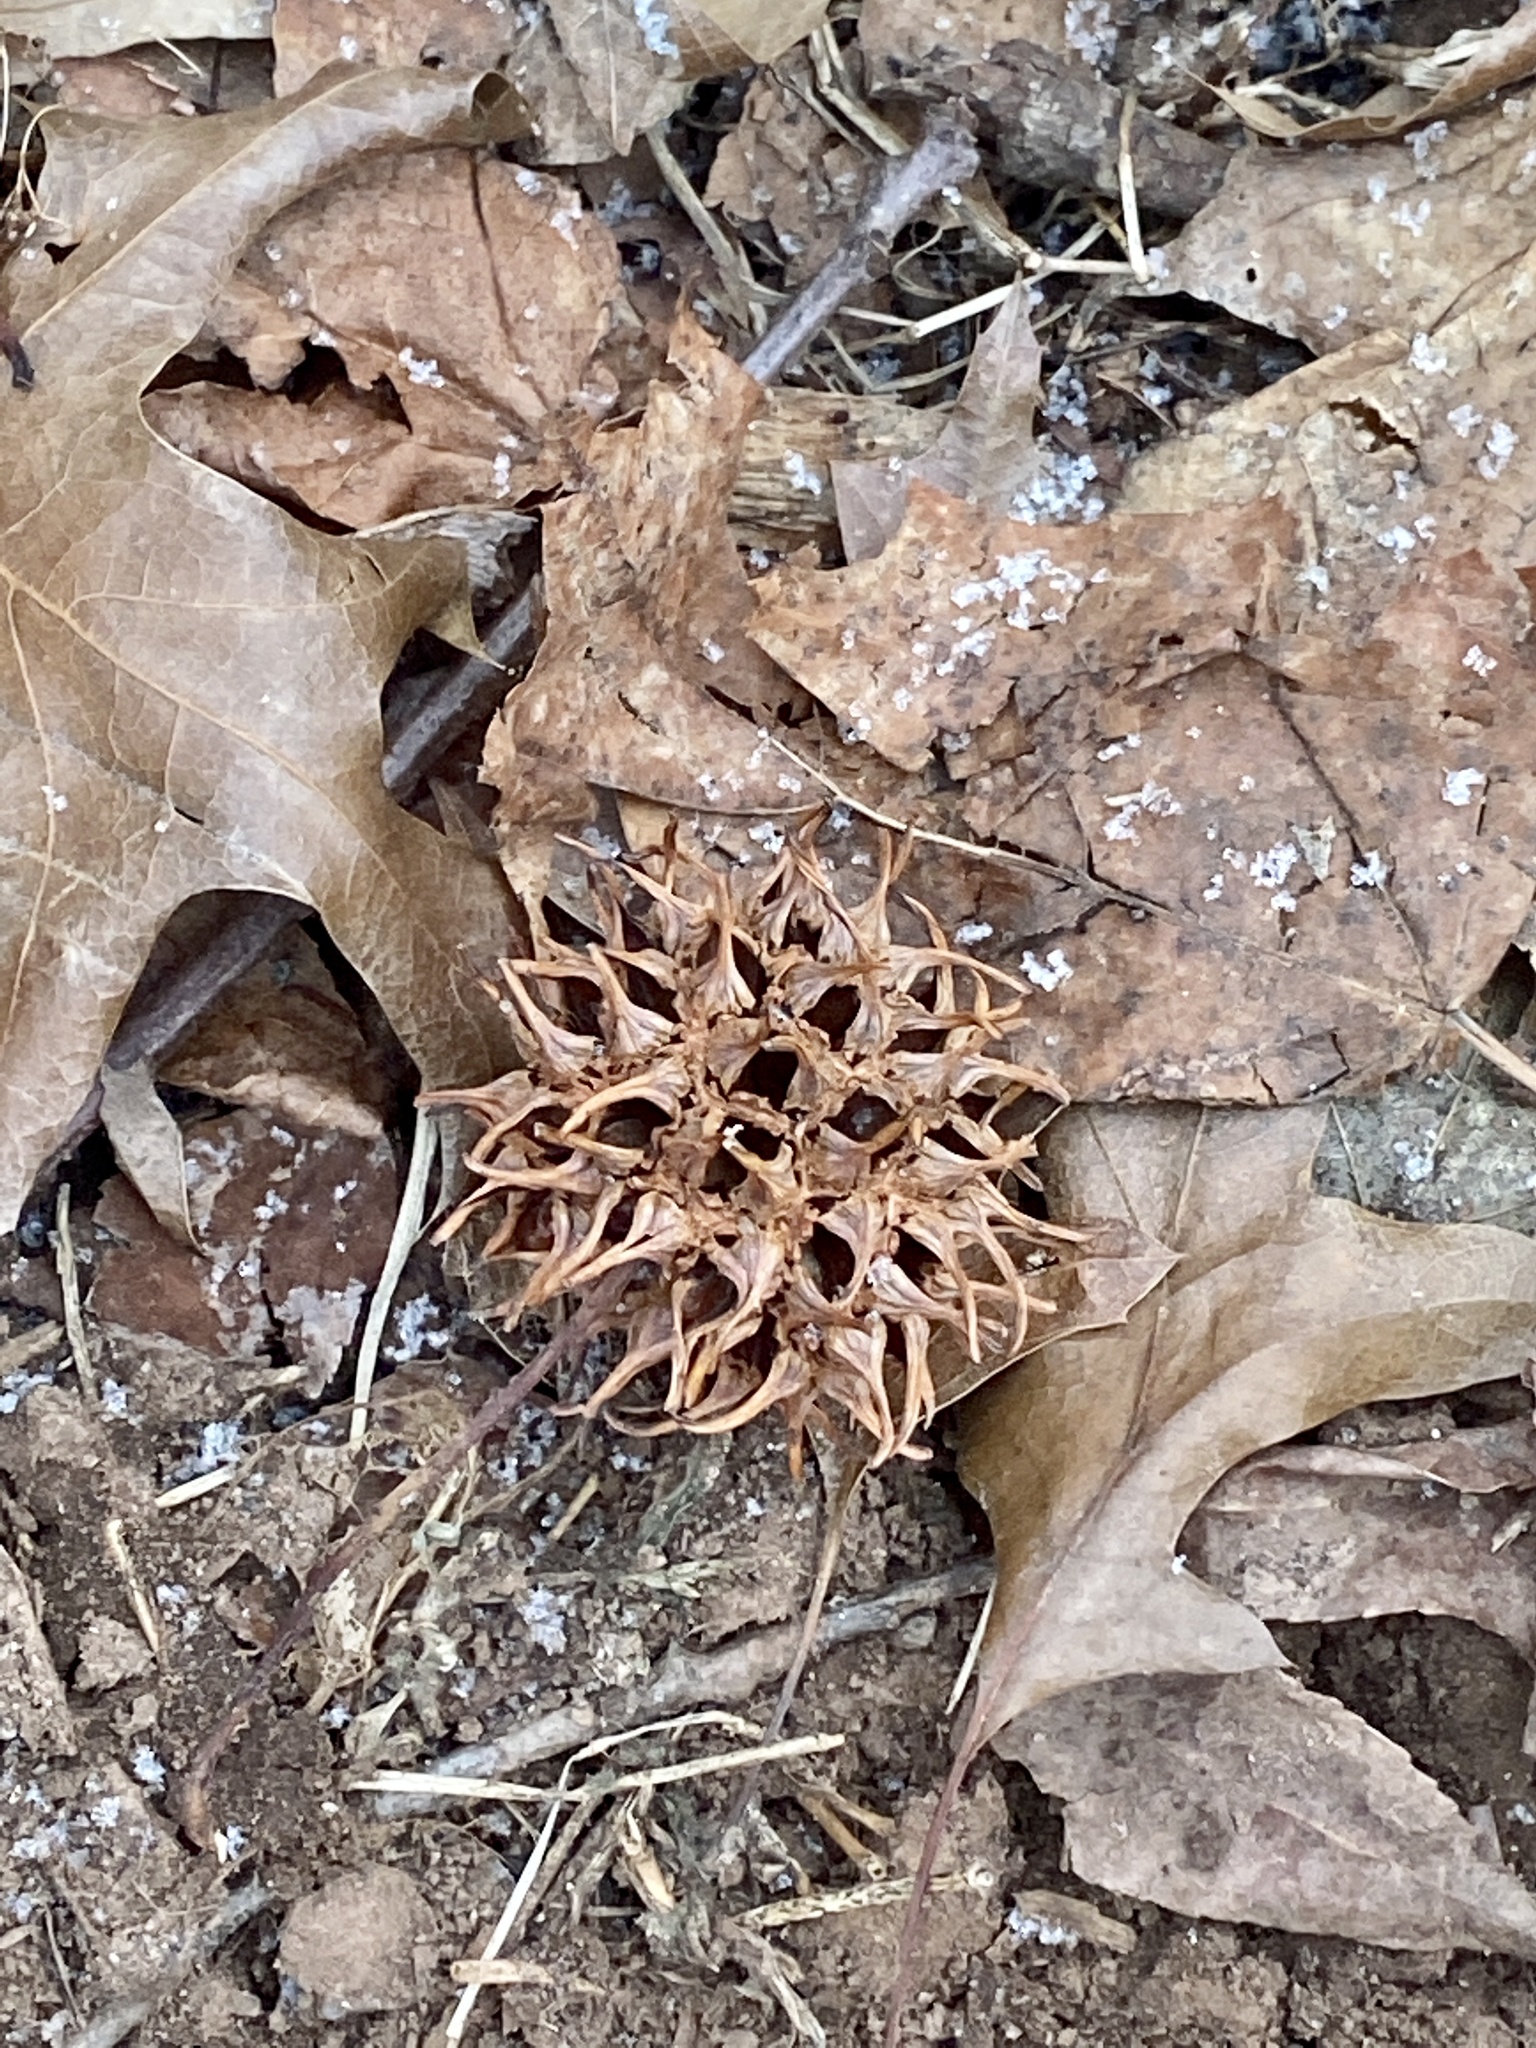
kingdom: Plantae
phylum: Tracheophyta
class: Magnoliopsida
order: Saxifragales
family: Altingiaceae
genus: Liquidambar
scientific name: Liquidambar styraciflua
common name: Sweet gum
